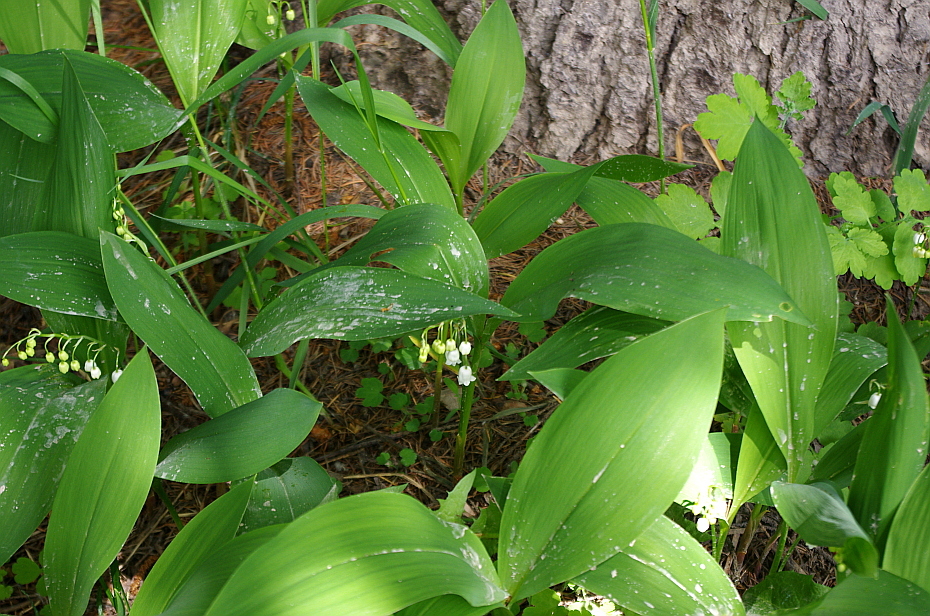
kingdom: Plantae
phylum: Tracheophyta
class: Liliopsida
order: Asparagales
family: Asparagaceae
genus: Convallaria
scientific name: Convallaria majalis
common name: Lily-of-the-valley
